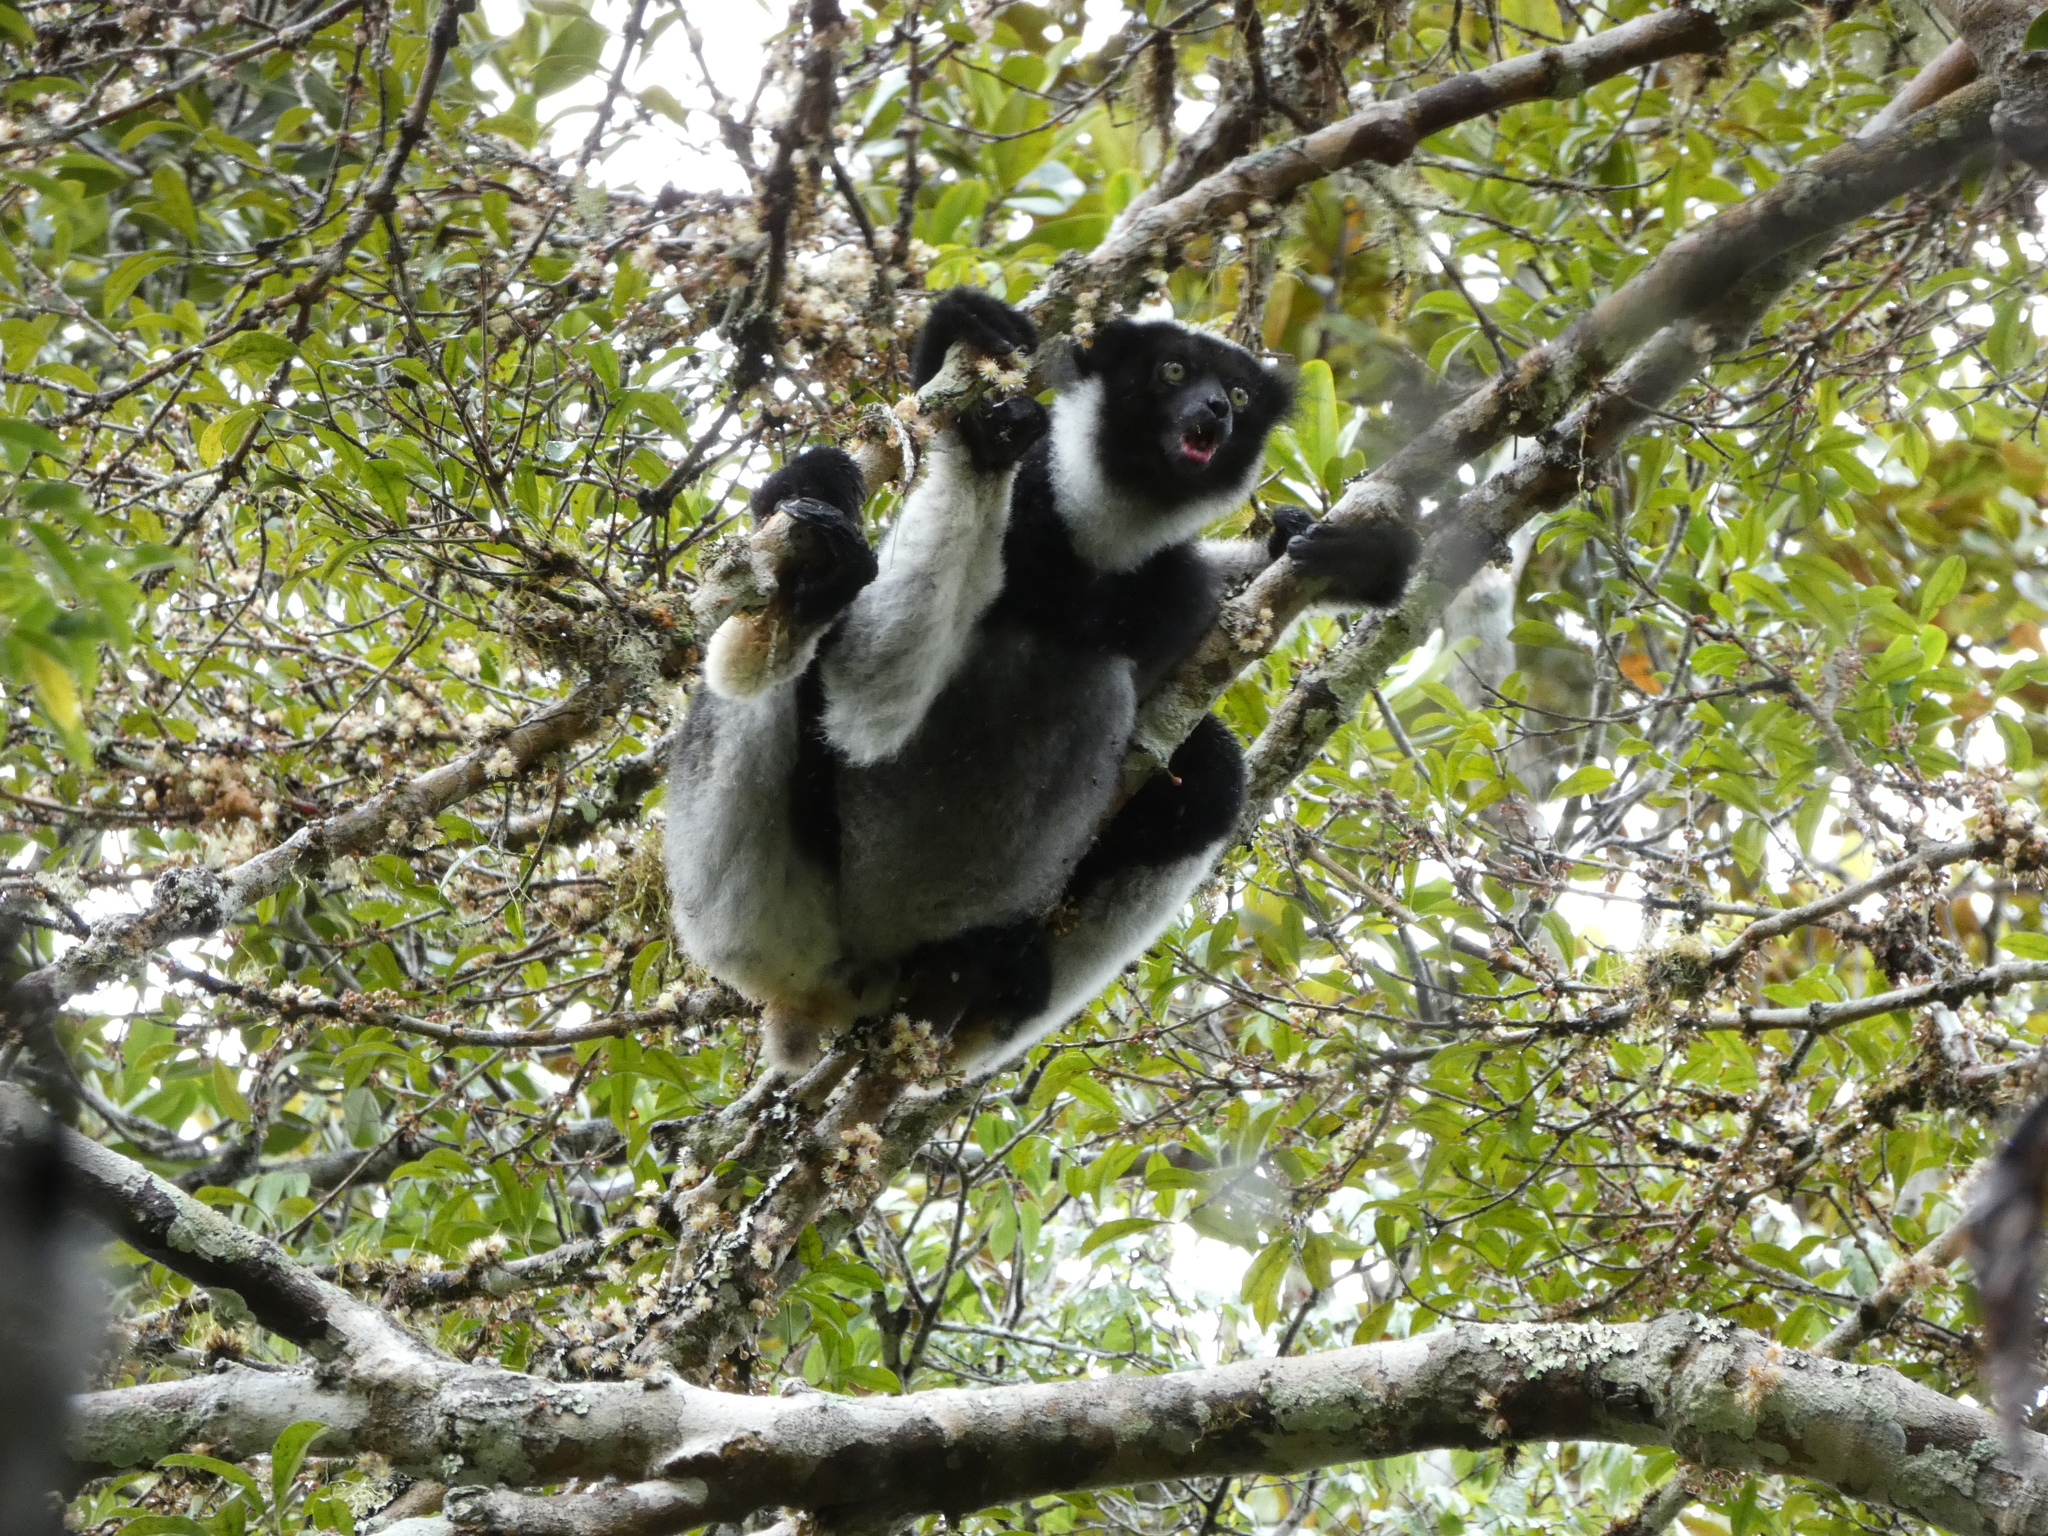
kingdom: Animalia
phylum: Chordata
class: Mammalia
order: Primates
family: Indriidae
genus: Indri
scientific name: Indri indri
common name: Indri
